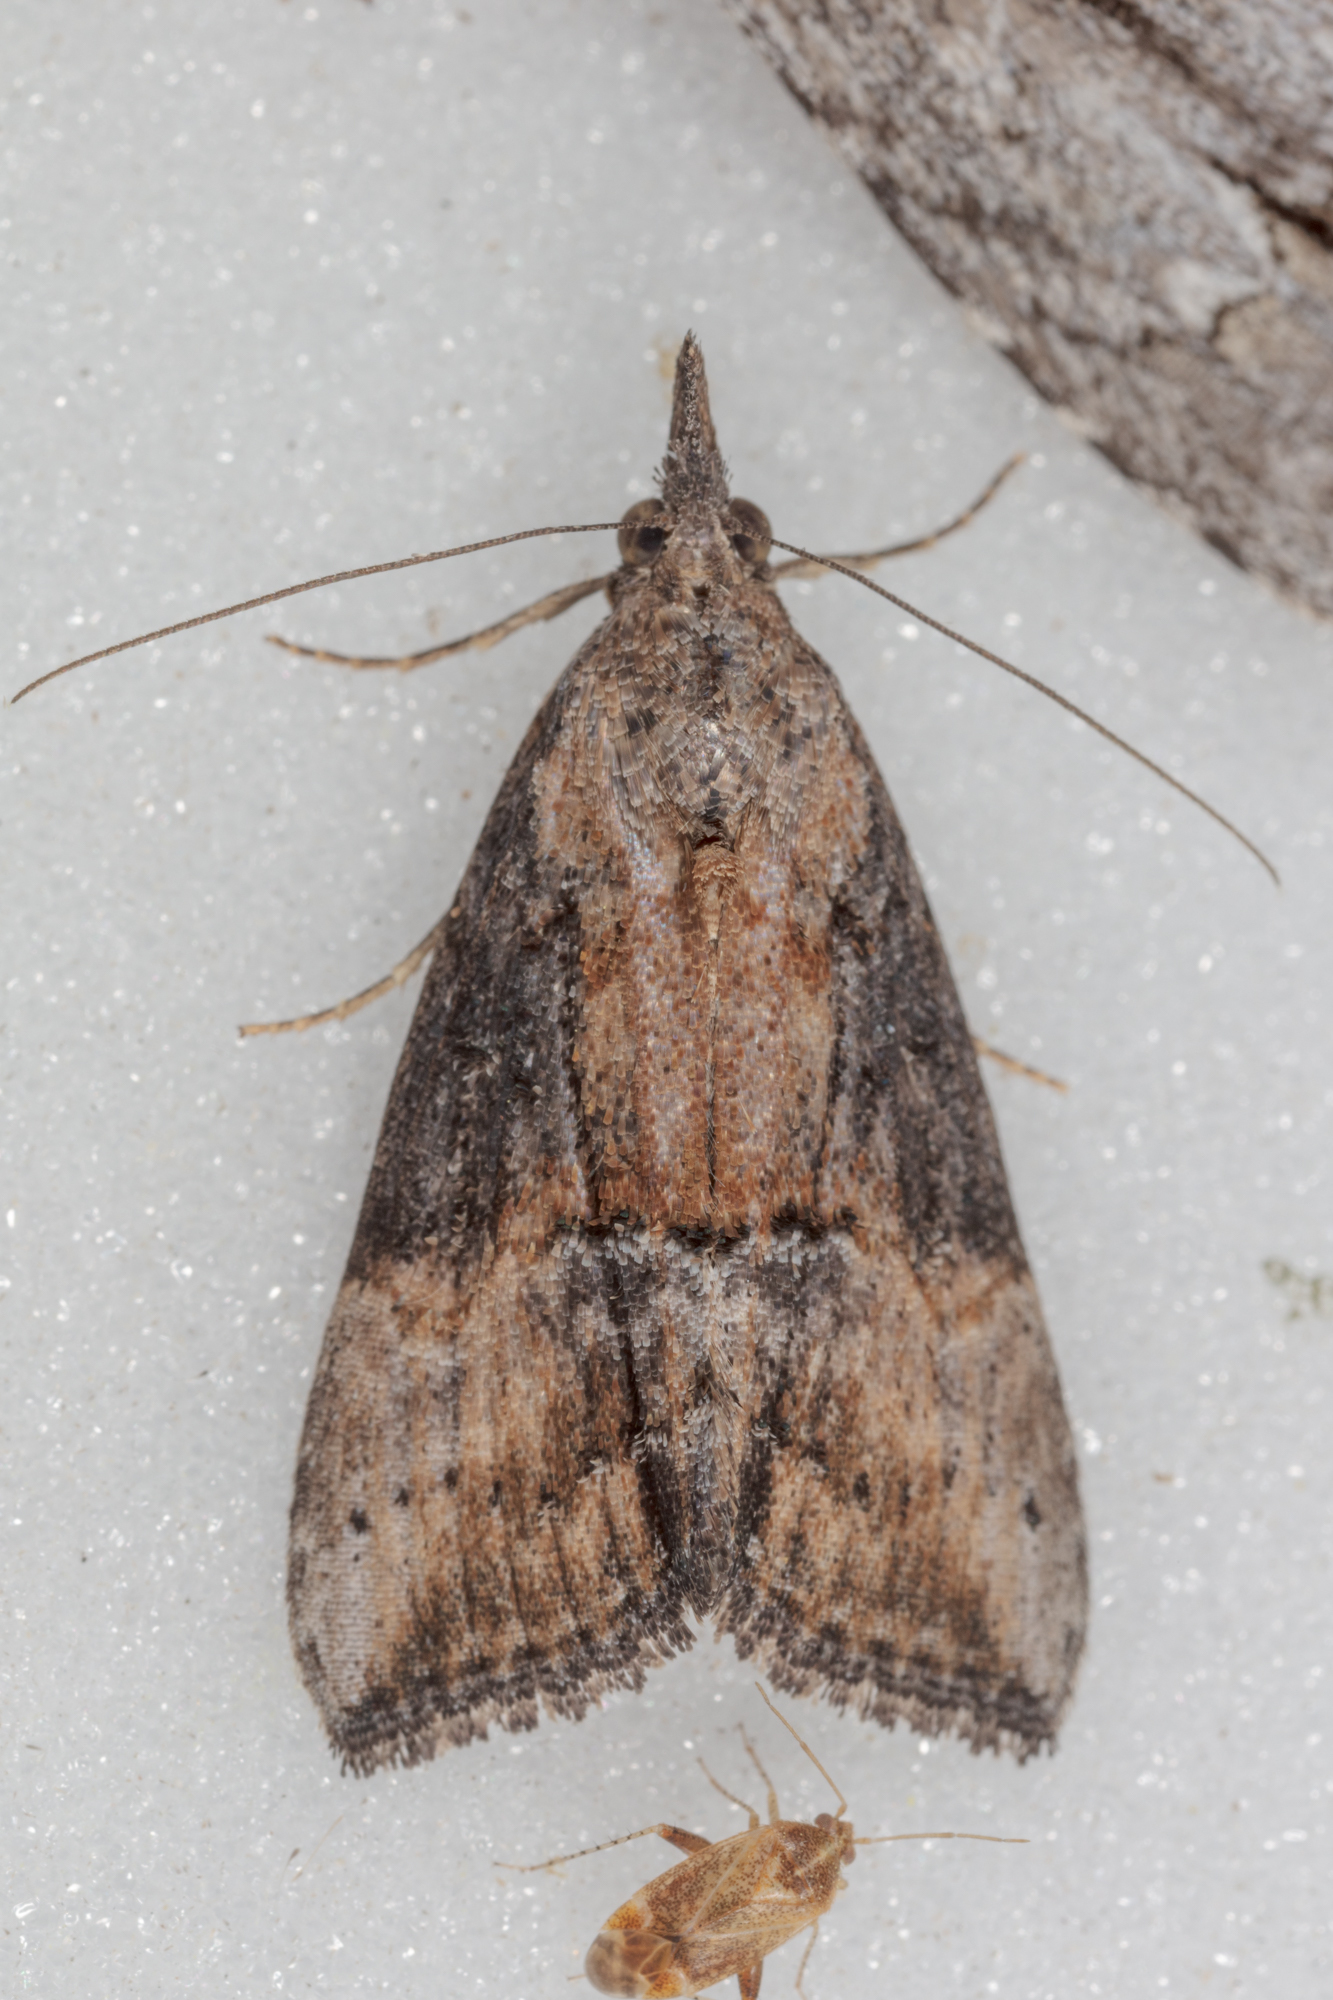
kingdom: Animalia
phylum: Arthropoda
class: Insecta
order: Lepidoptera
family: Erebidae
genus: Hypena
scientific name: Hypena scabra
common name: Green cloverworm
